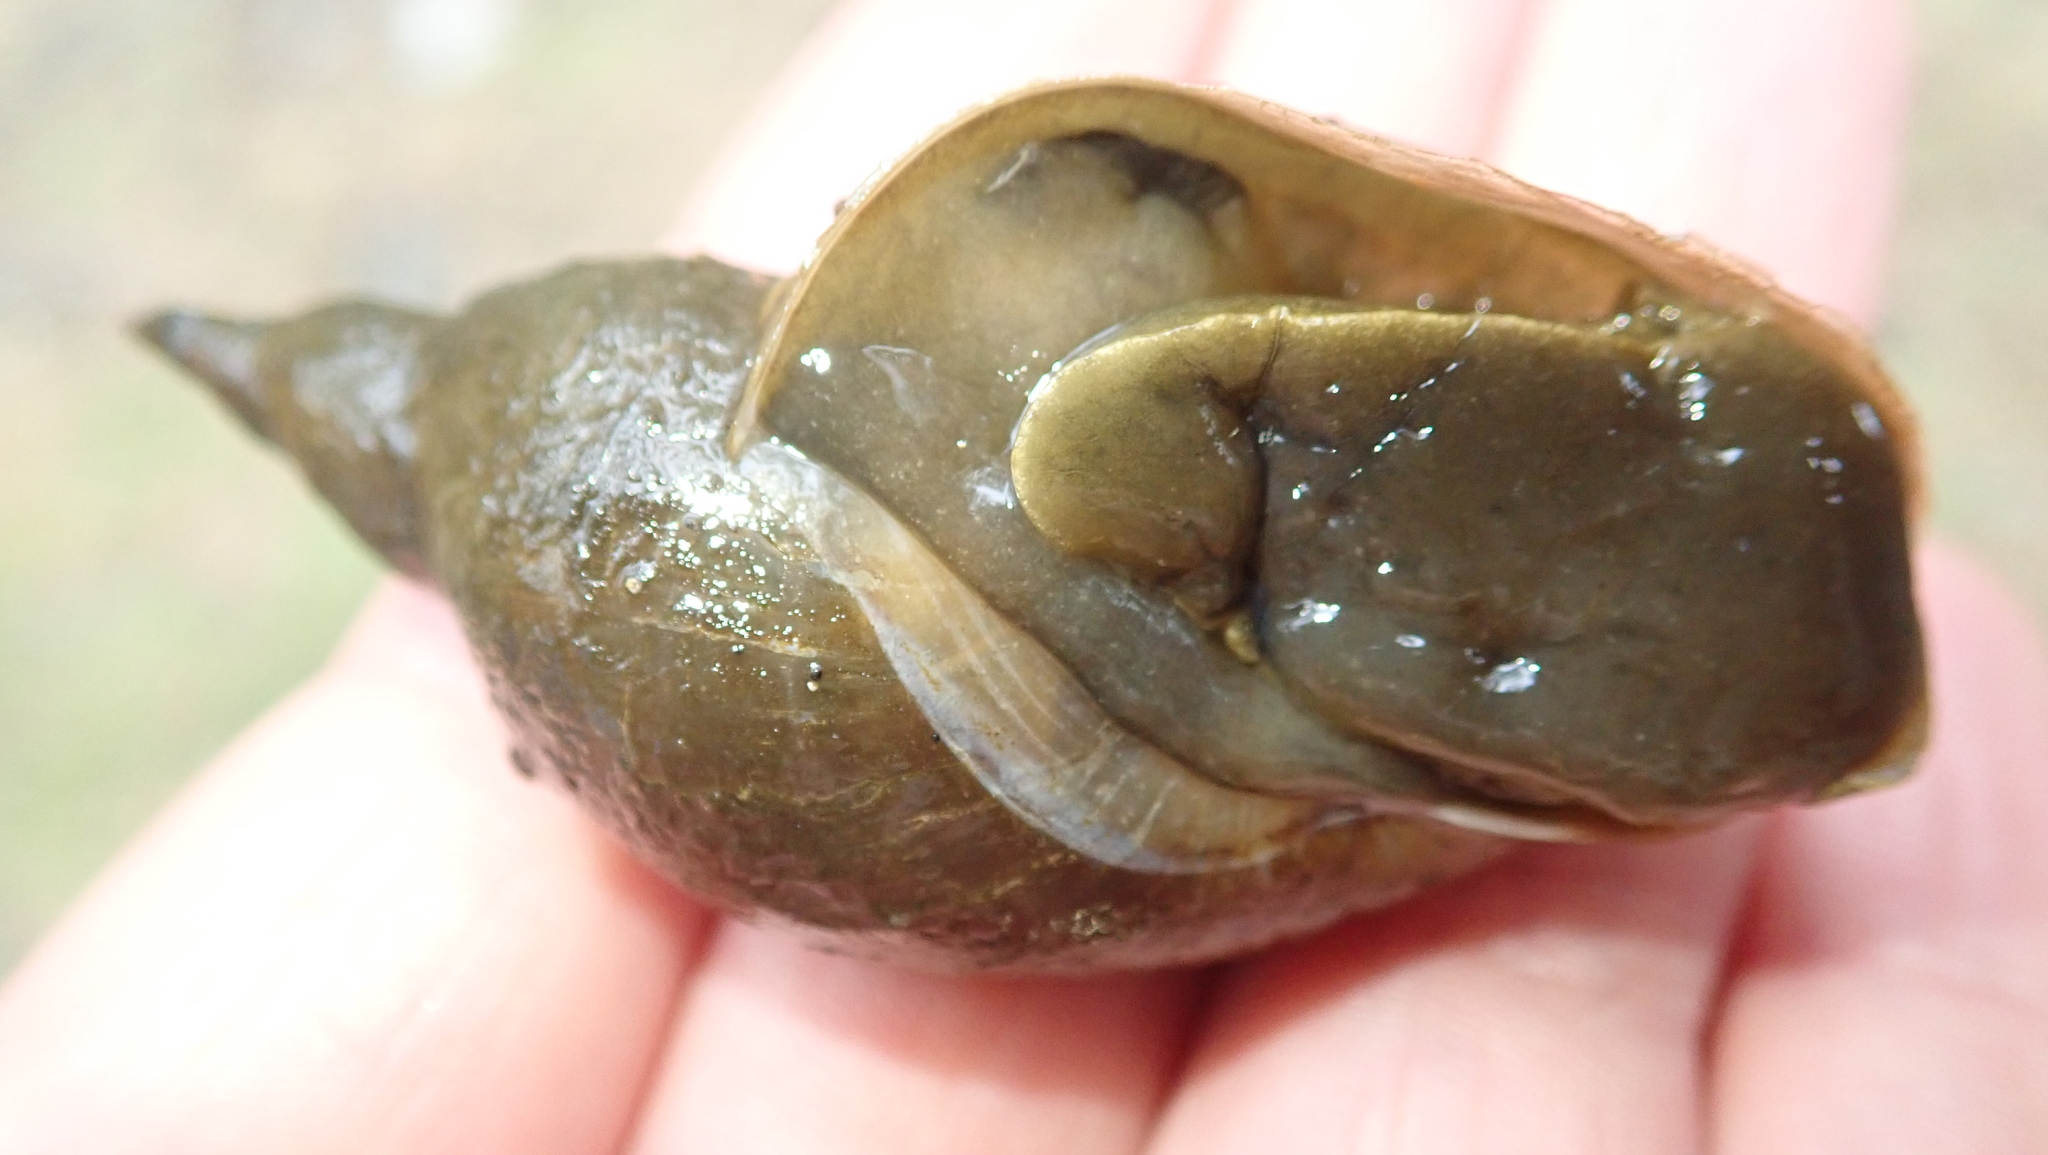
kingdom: Animalia
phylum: Mollusca
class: Gastropoda
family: Lymnaeidae
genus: Lymnaea
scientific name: Lymnaea stagnalis
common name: Great pond snail
